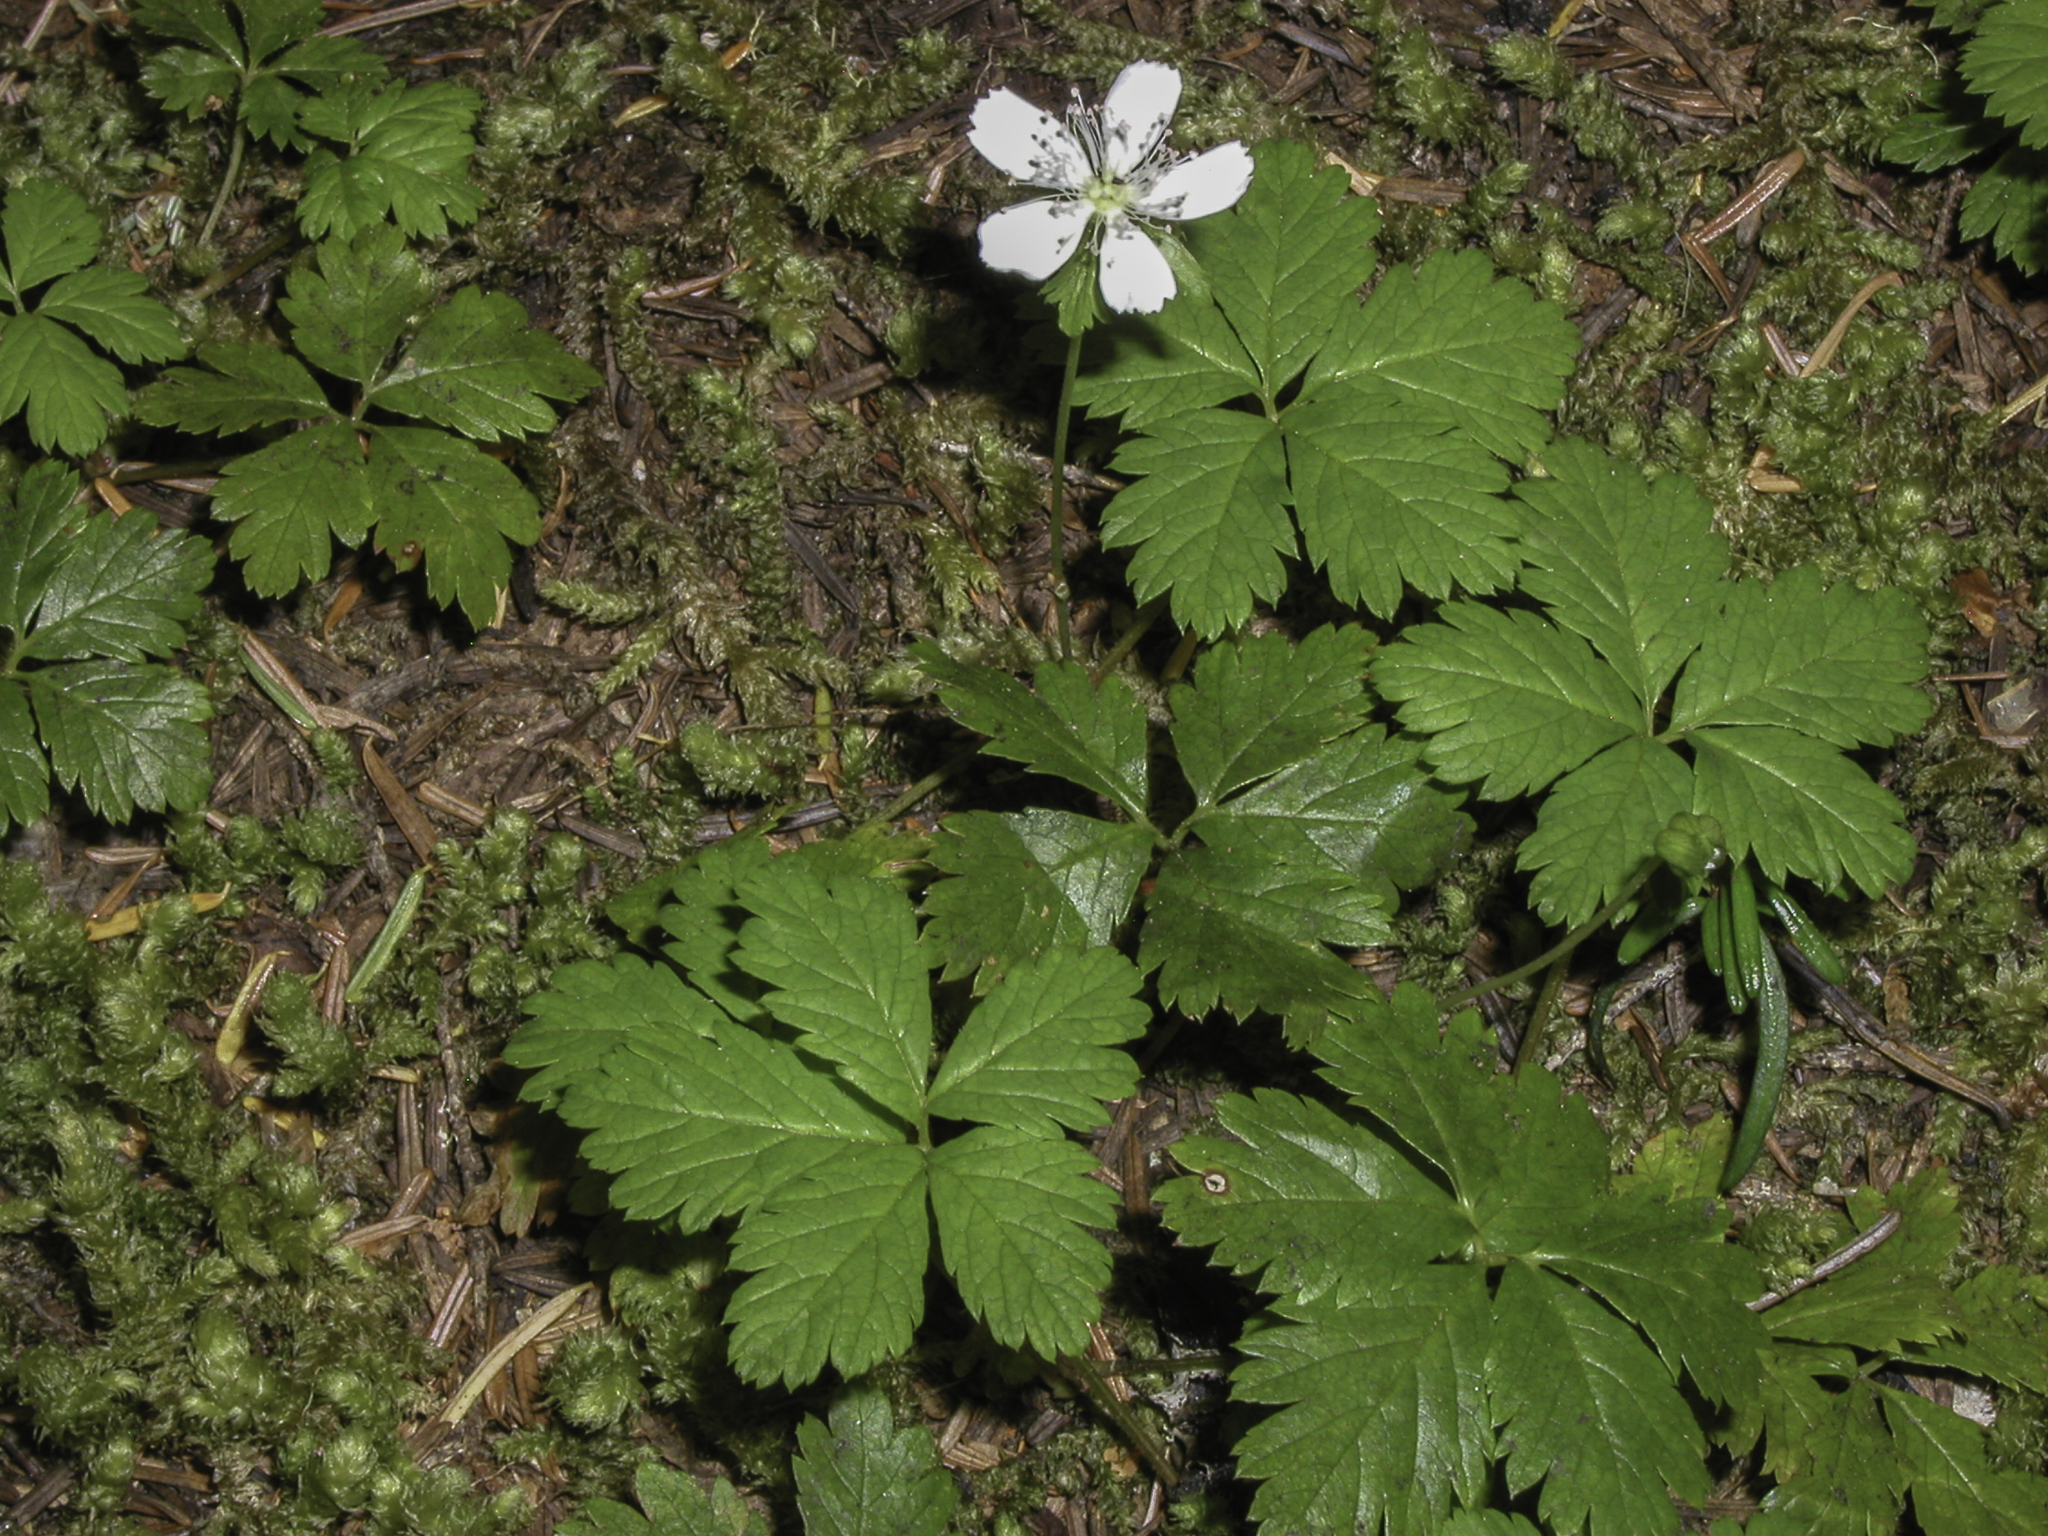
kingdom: Plantae
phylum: Tracheophyta
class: Magnoliopsida
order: Rosales
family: Rosaceae
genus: Rubus
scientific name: Rubus pedatus
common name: Creeping raspberry
